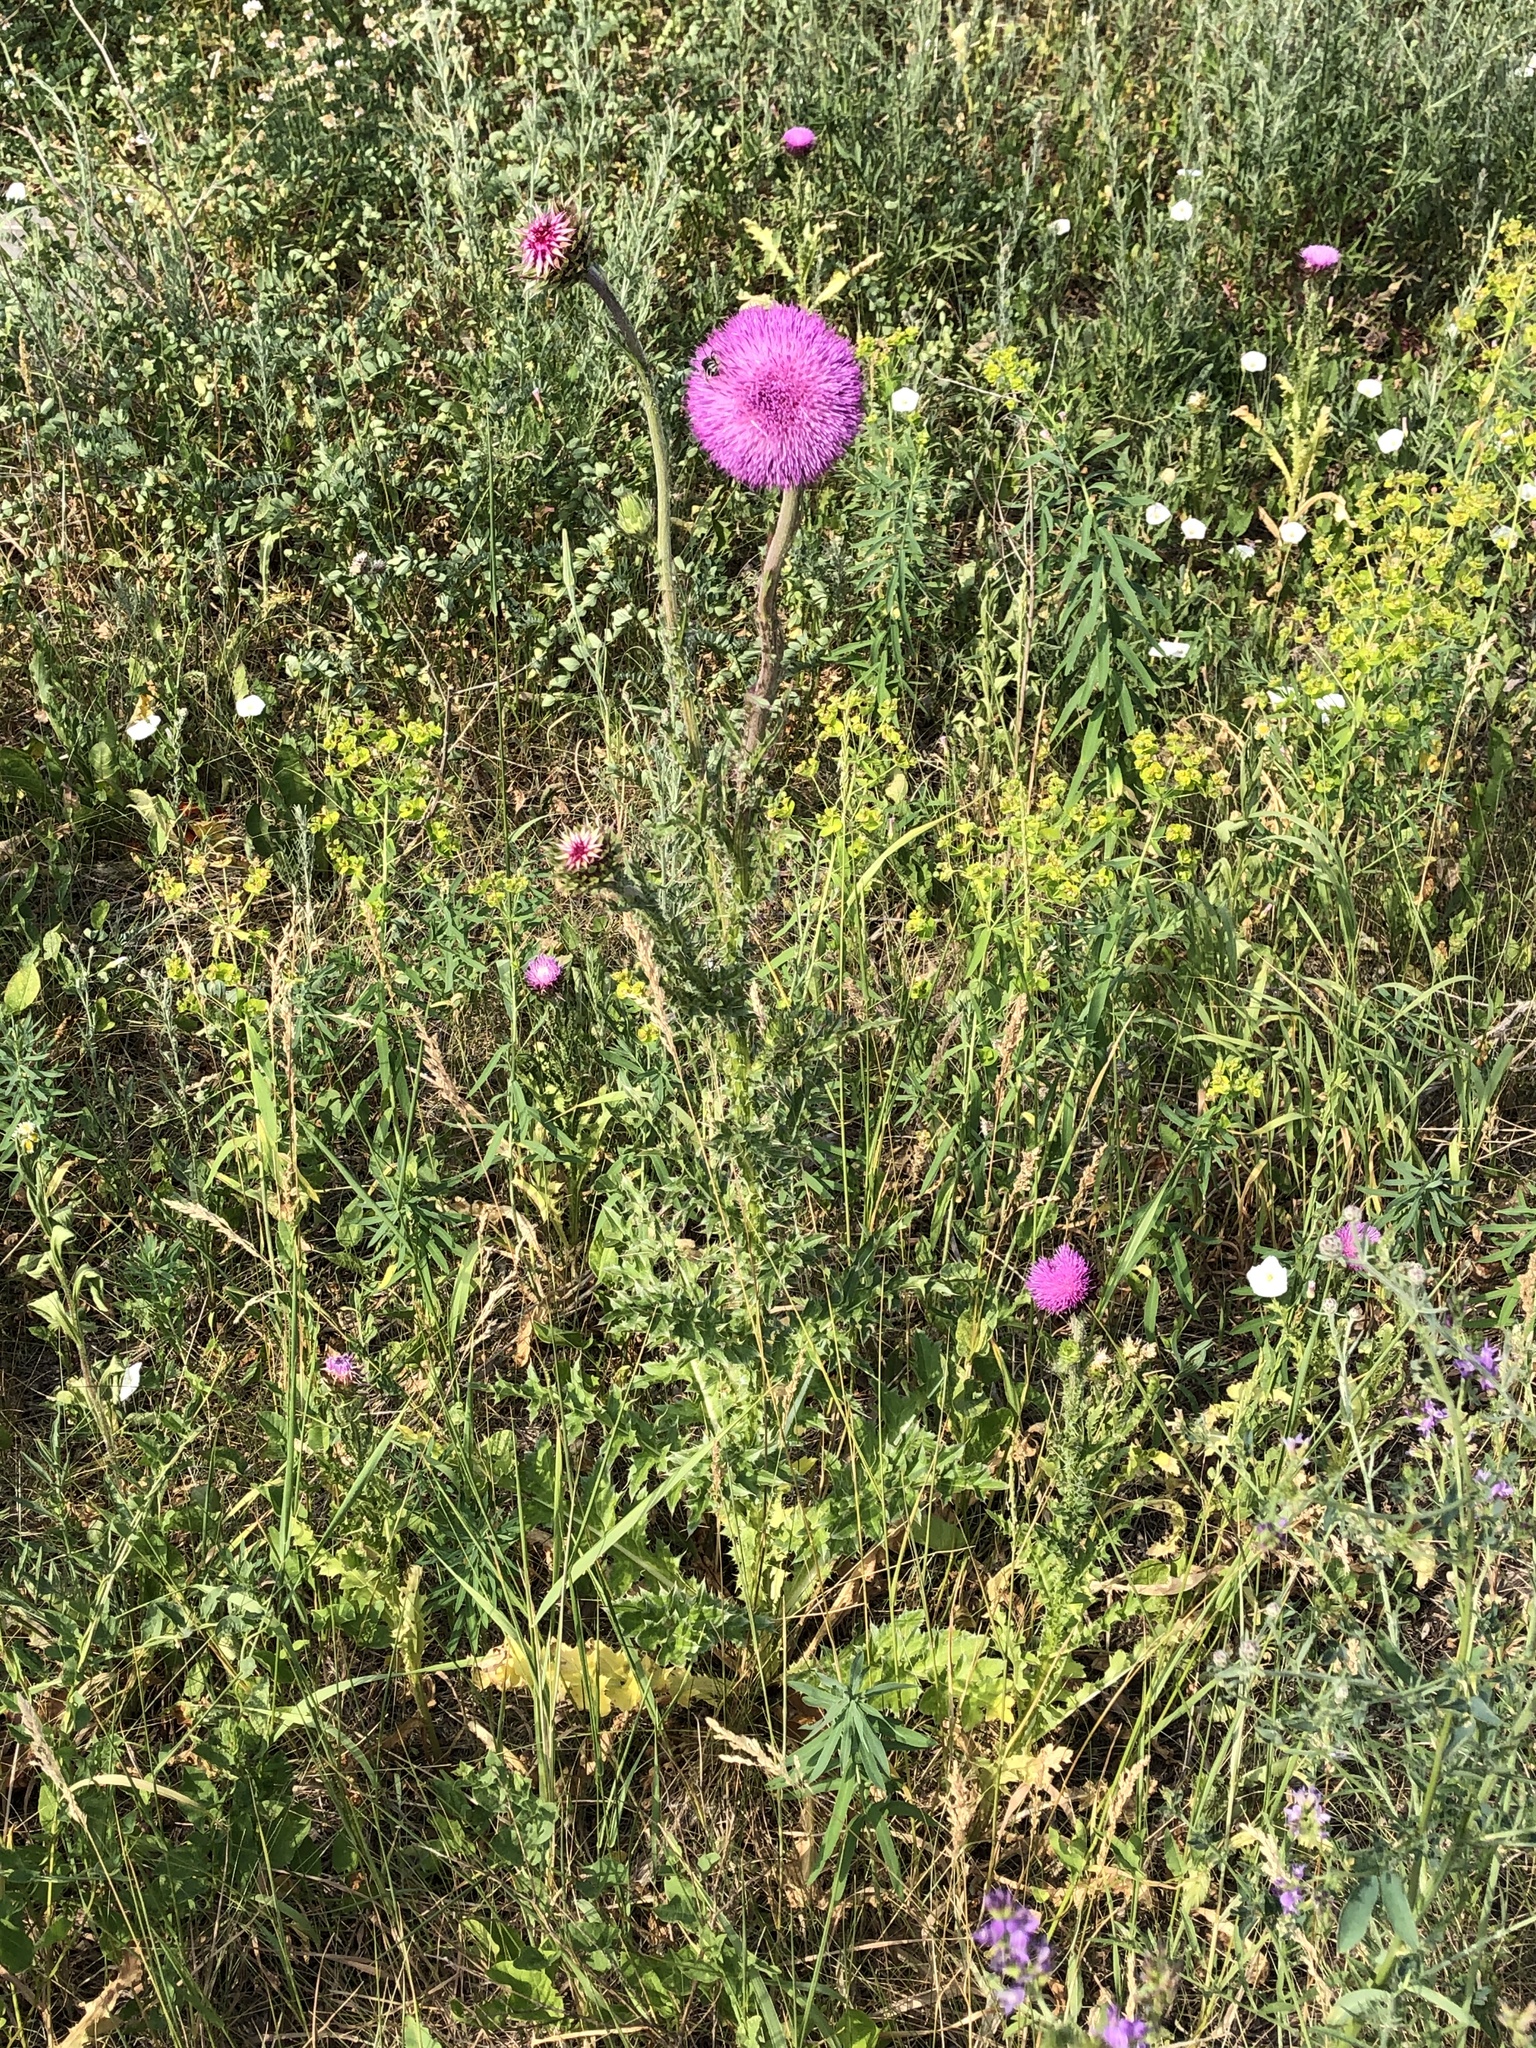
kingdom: Plantae
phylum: Tracheophyta
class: Magnoliopsida
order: Asterales
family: Asteraceae
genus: Carduus
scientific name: Carduus nutans
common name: Musk thistle
